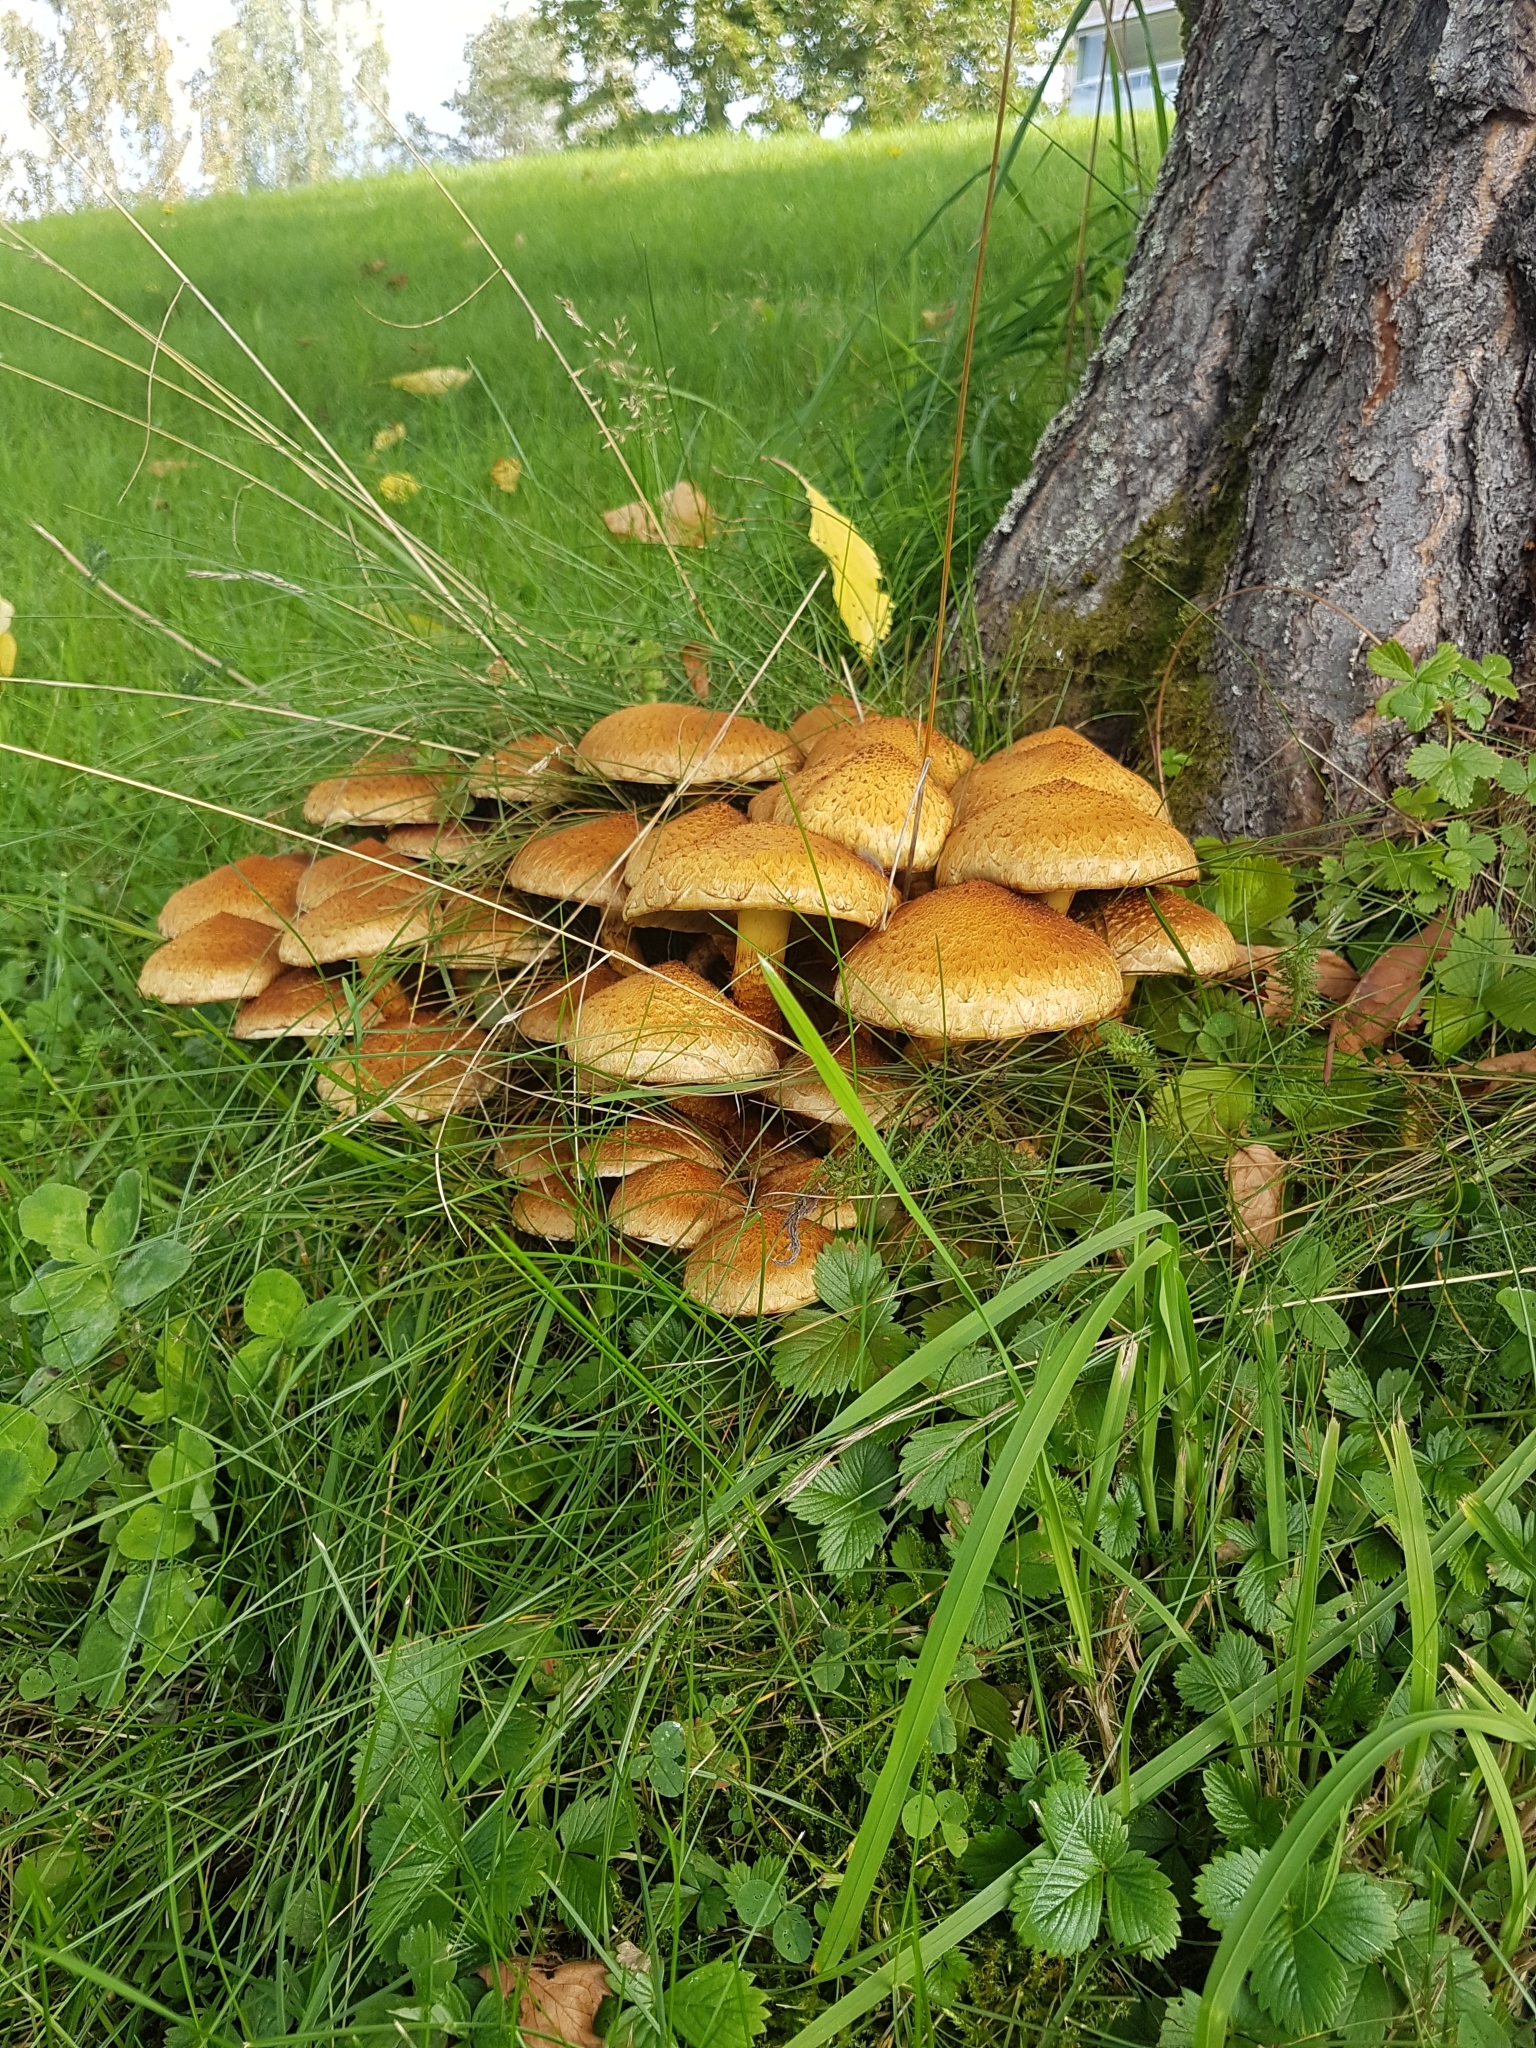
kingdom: Fungi
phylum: Basidiomycota
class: Agaricomycetes
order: Agaricales
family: Strophariaceae
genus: Pholiota
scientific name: Pholiota squarrosa
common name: Shaggy pholiota
